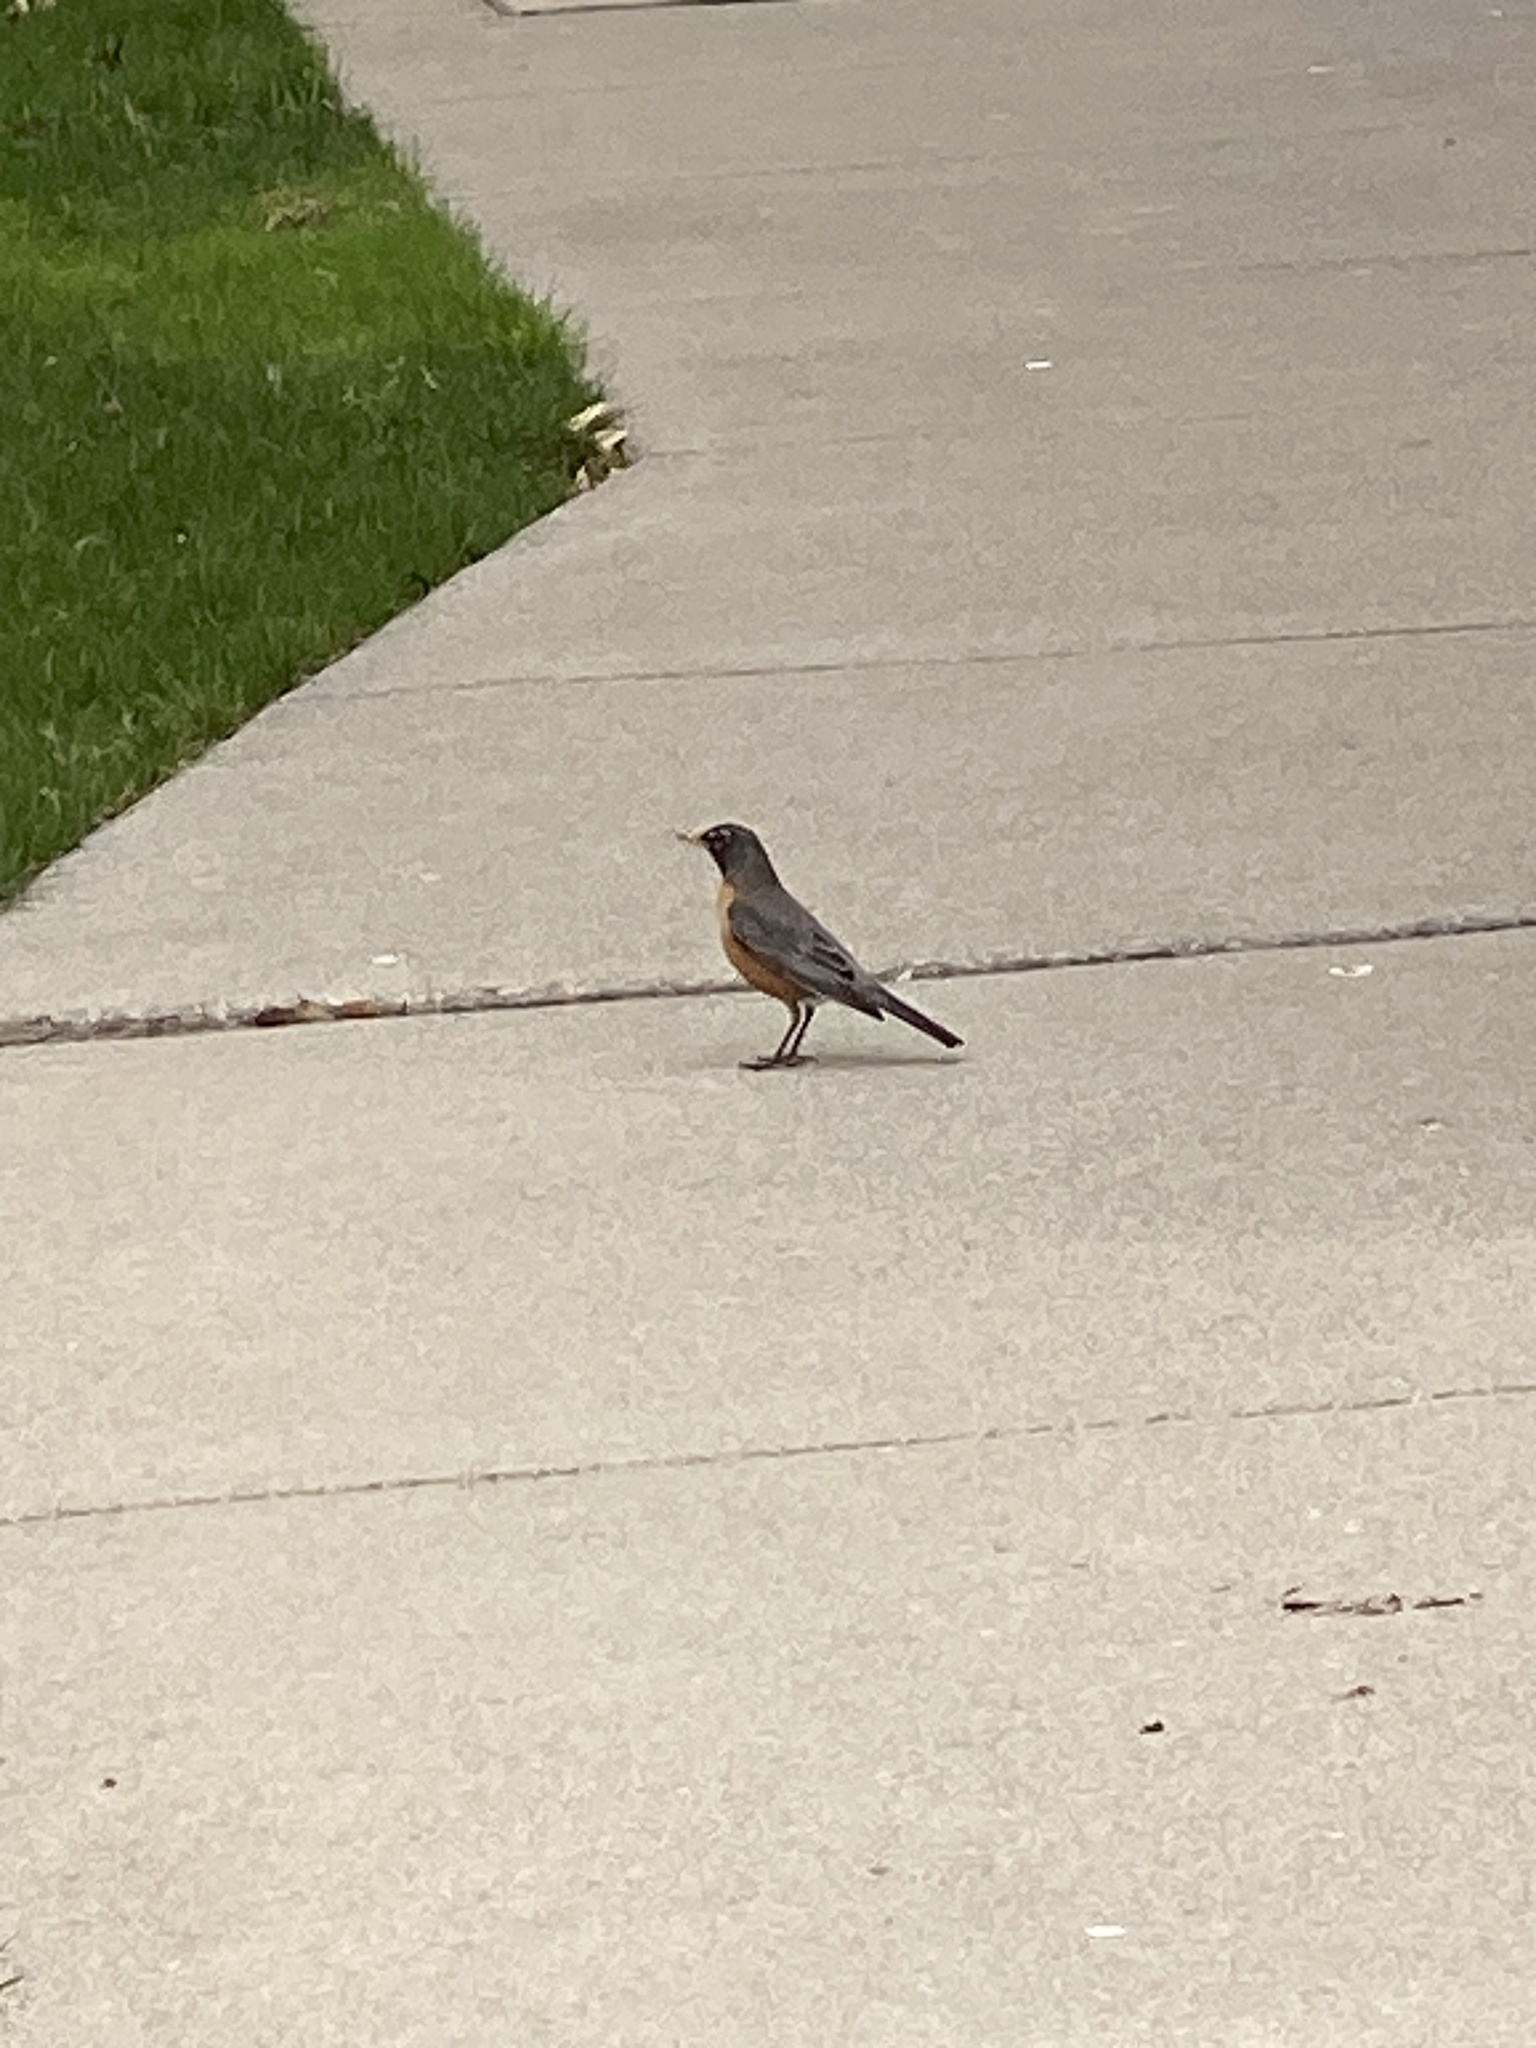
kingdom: Animalia
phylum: Chordata
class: Aves
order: Passeriformes
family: Turdidae
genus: Turdus
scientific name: Turdus migratorius
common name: American robin
